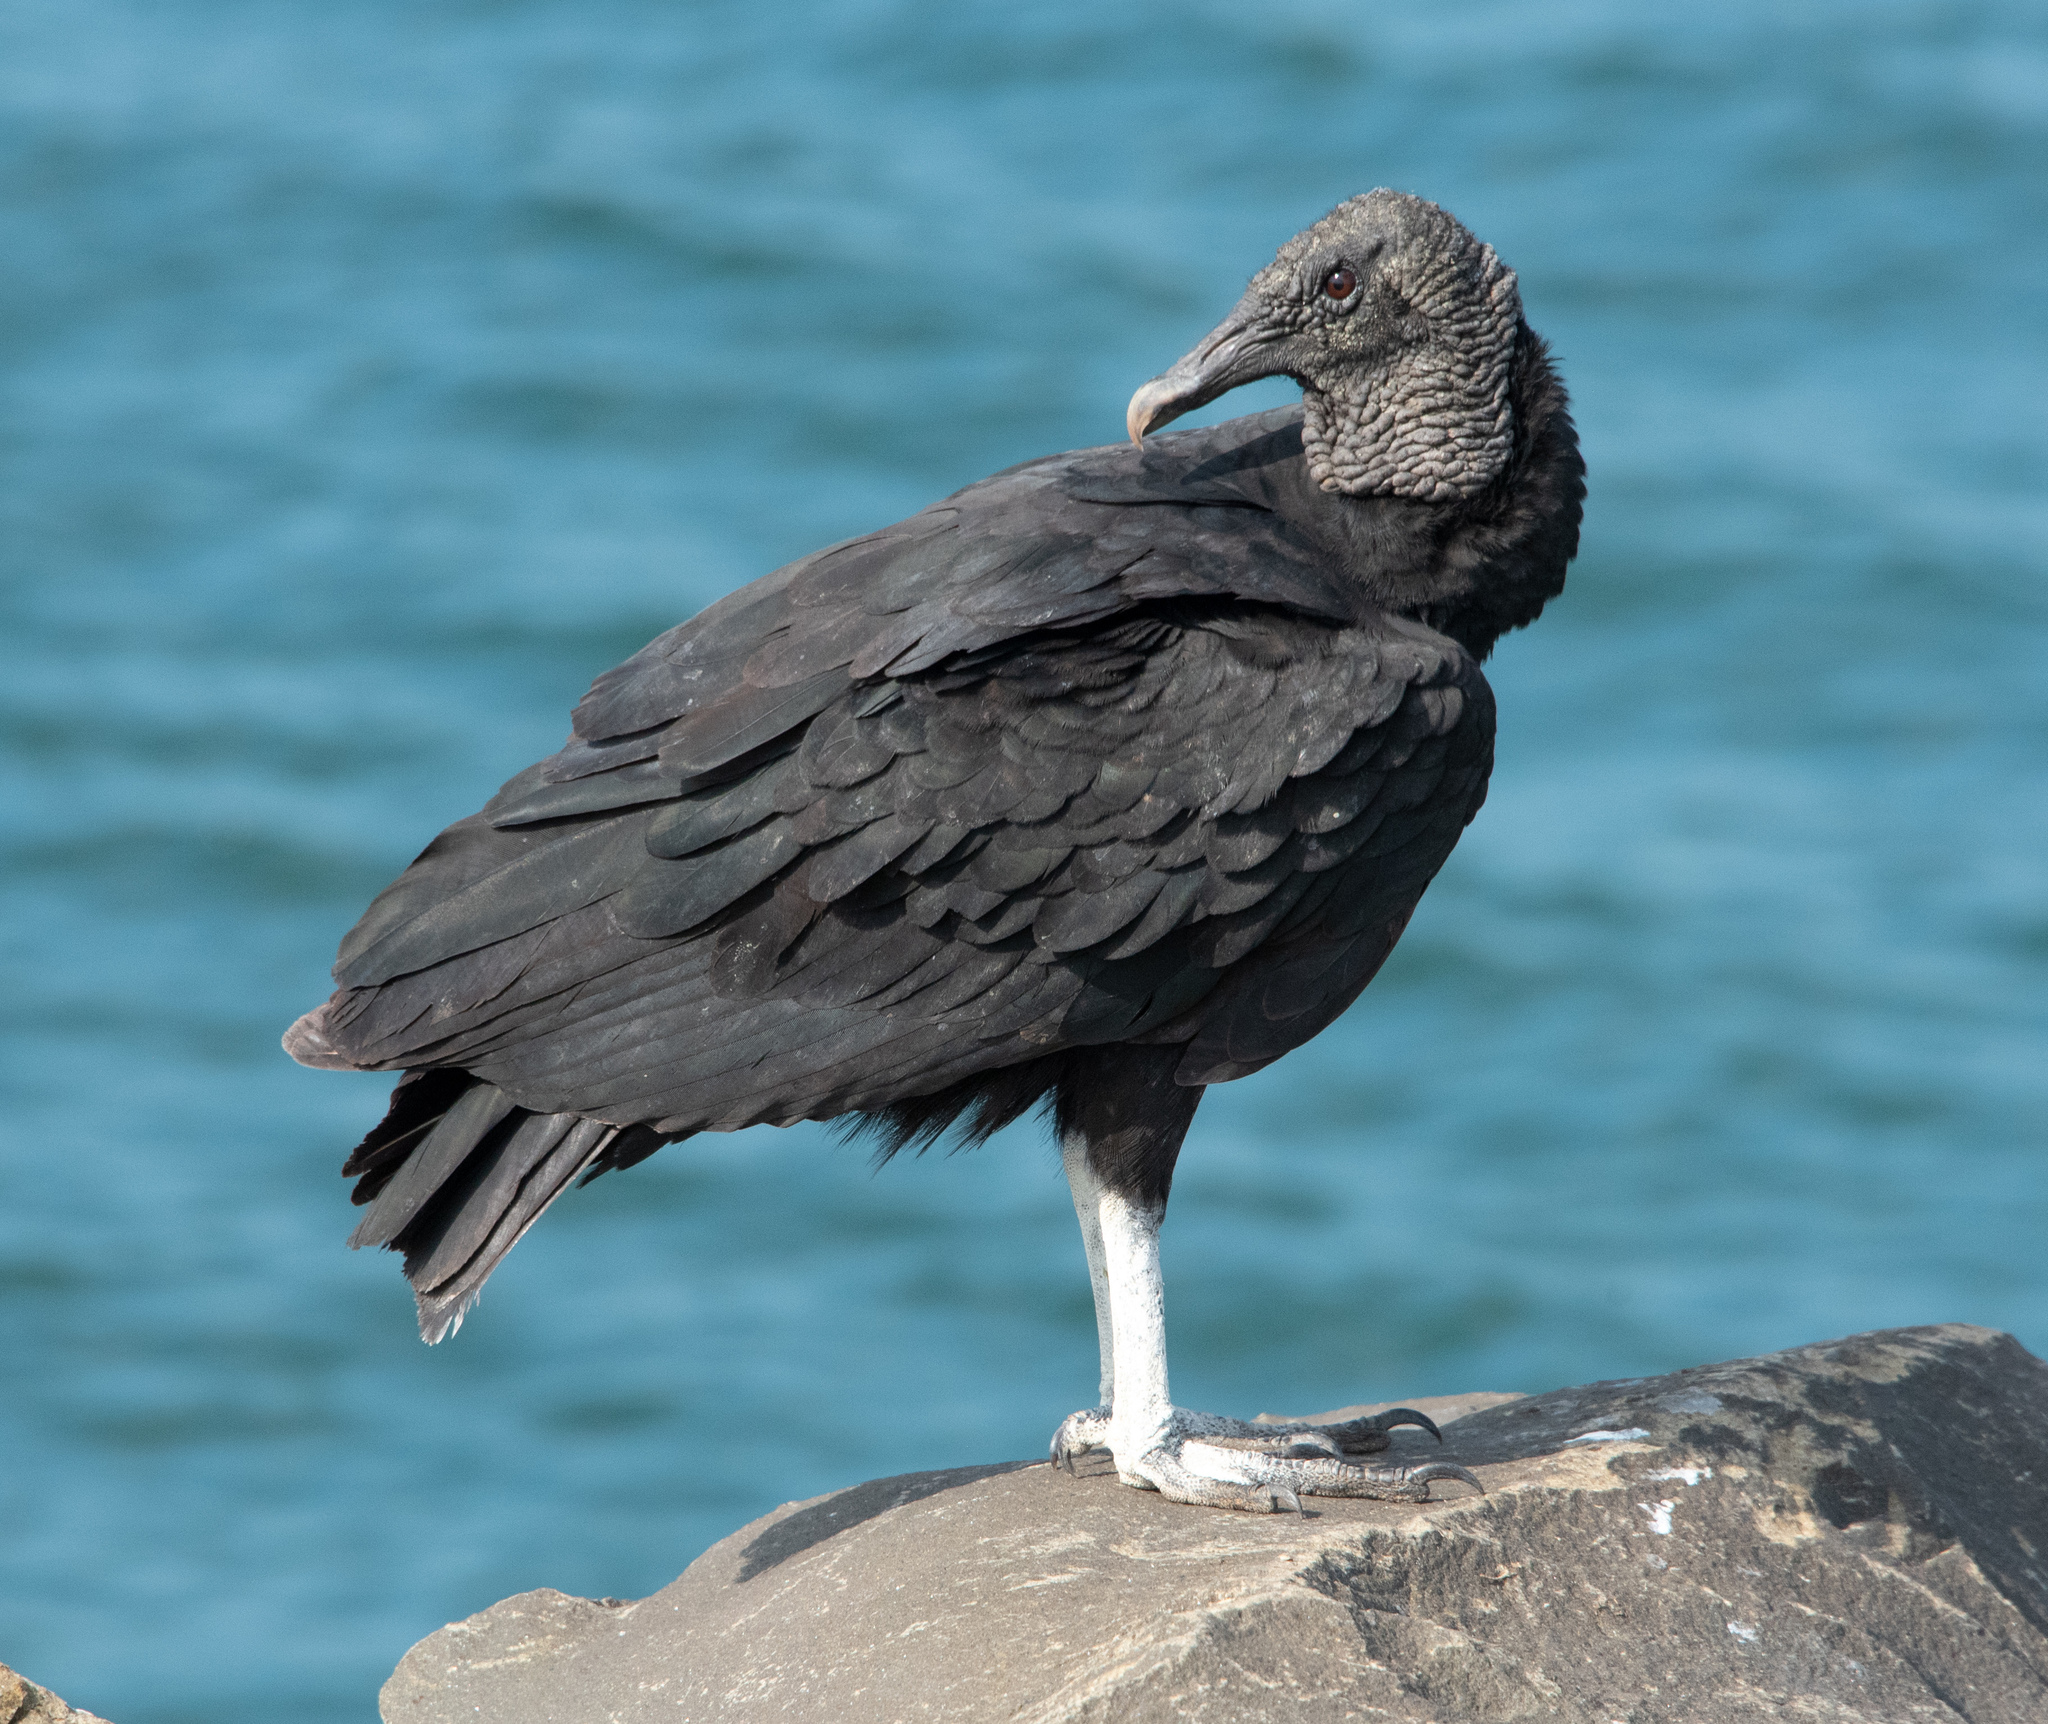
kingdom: Animalia
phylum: Chordata
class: Aves
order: Accipitriformes
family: Cathartidae
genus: Coragyps
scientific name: Coragyps atratus
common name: Black vulture
